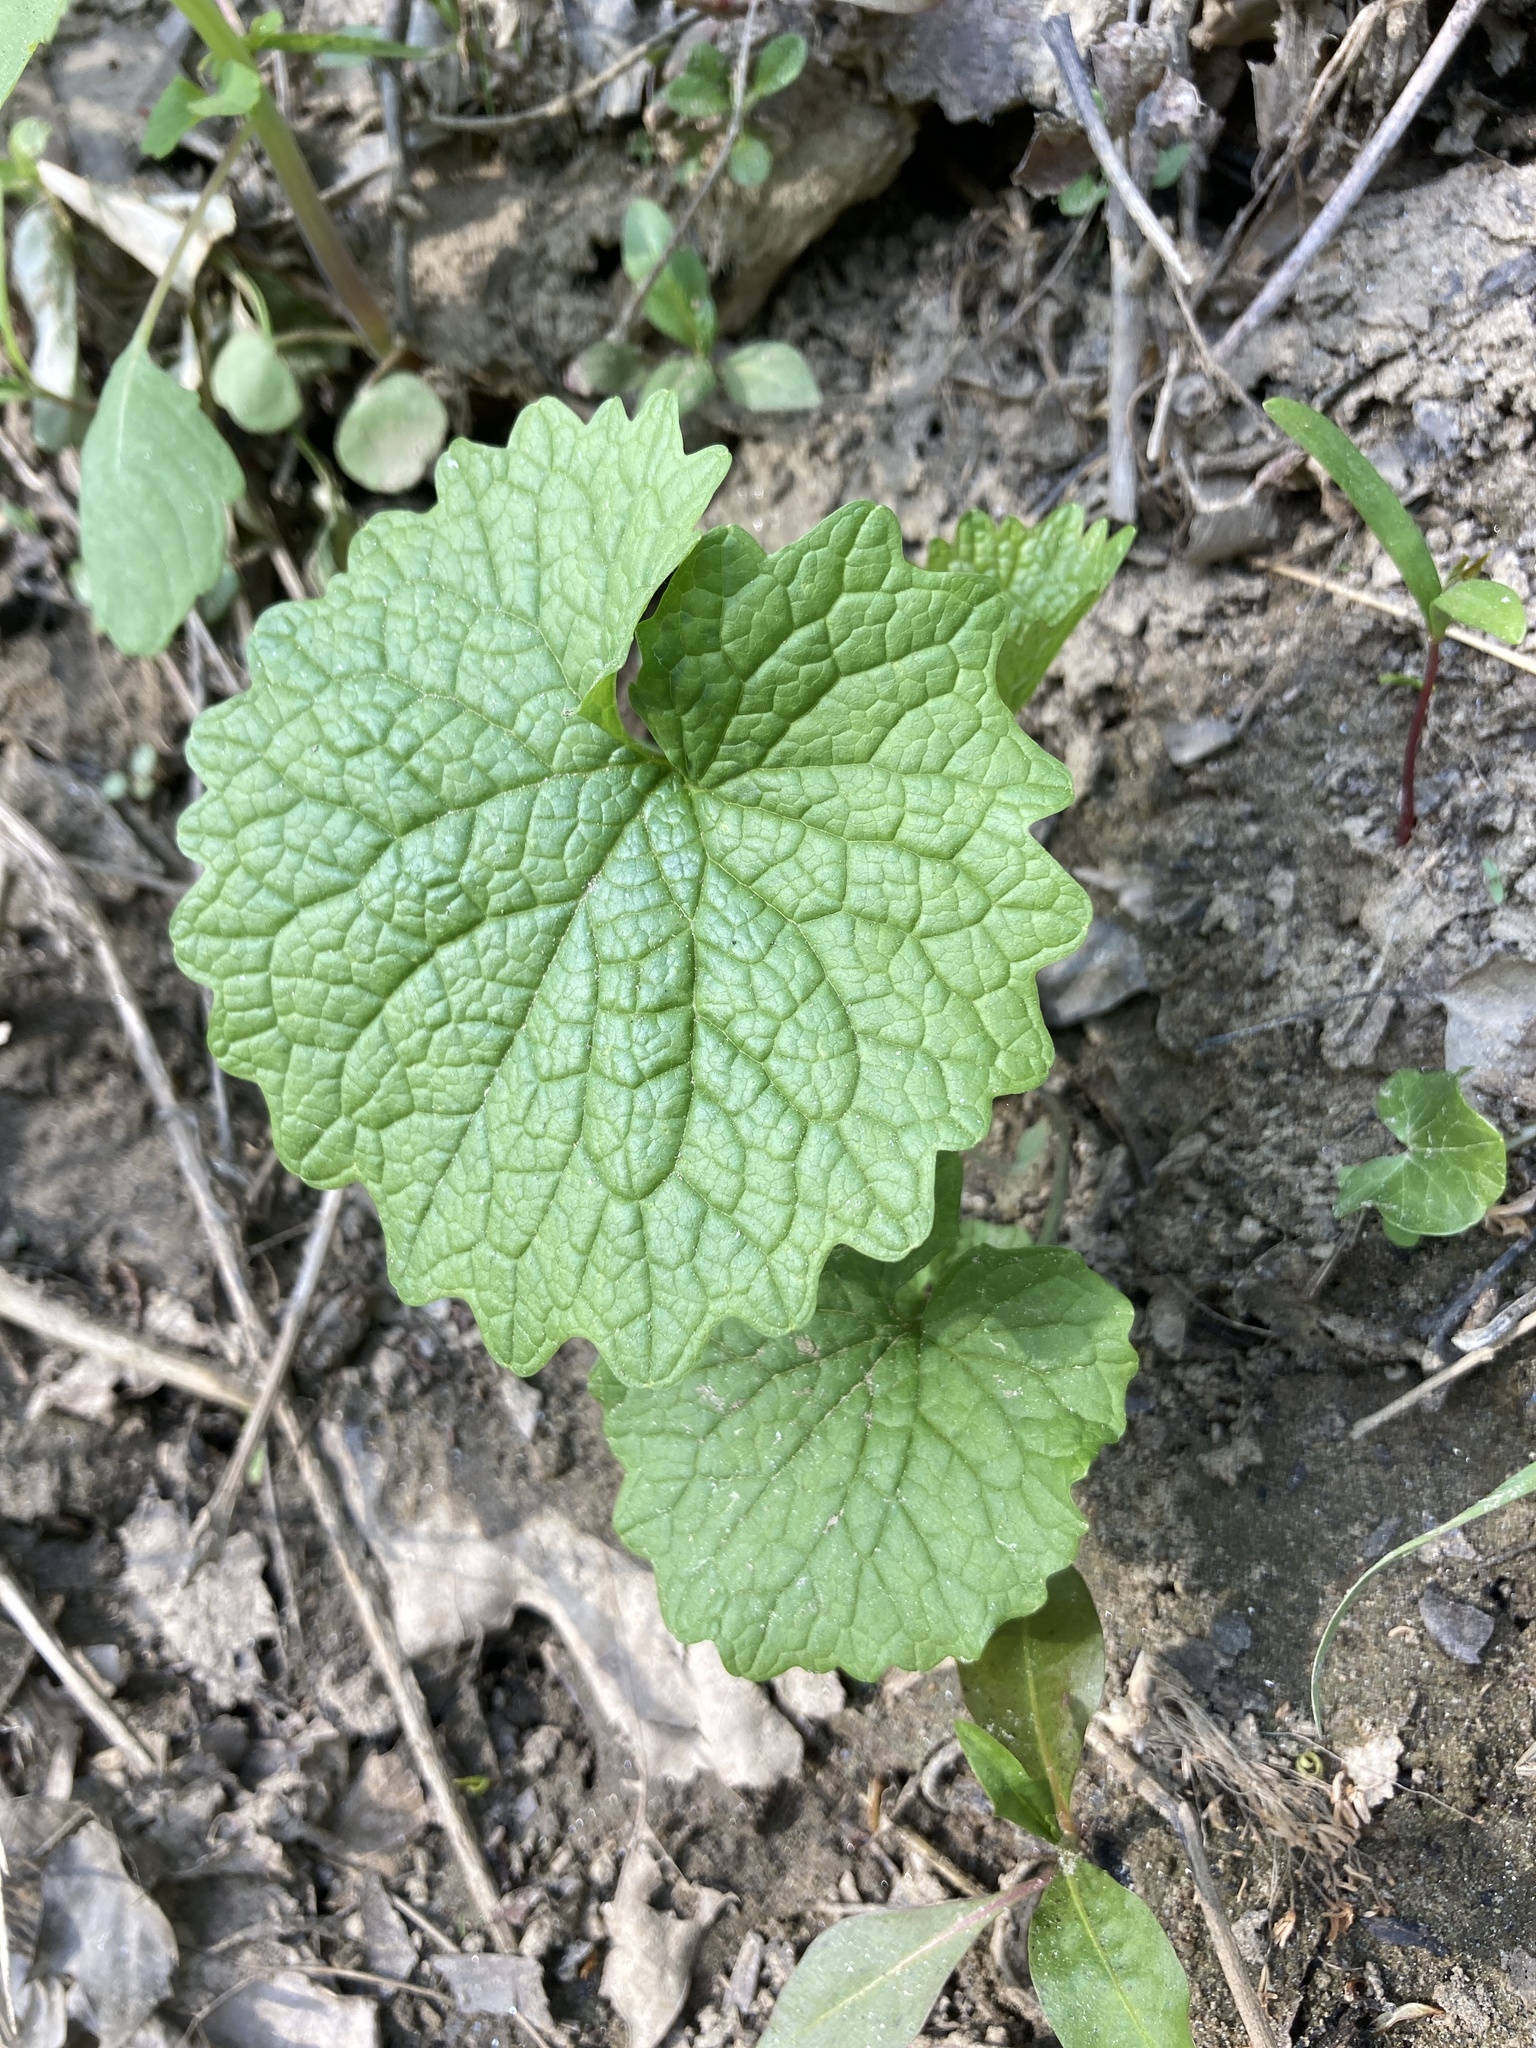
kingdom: Plantae
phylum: Tracheophyta
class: Magnoliopsida
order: Brassicales
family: Brassicaceae
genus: Alliaria
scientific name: Alliaria petiolata
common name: Garlic mustard
